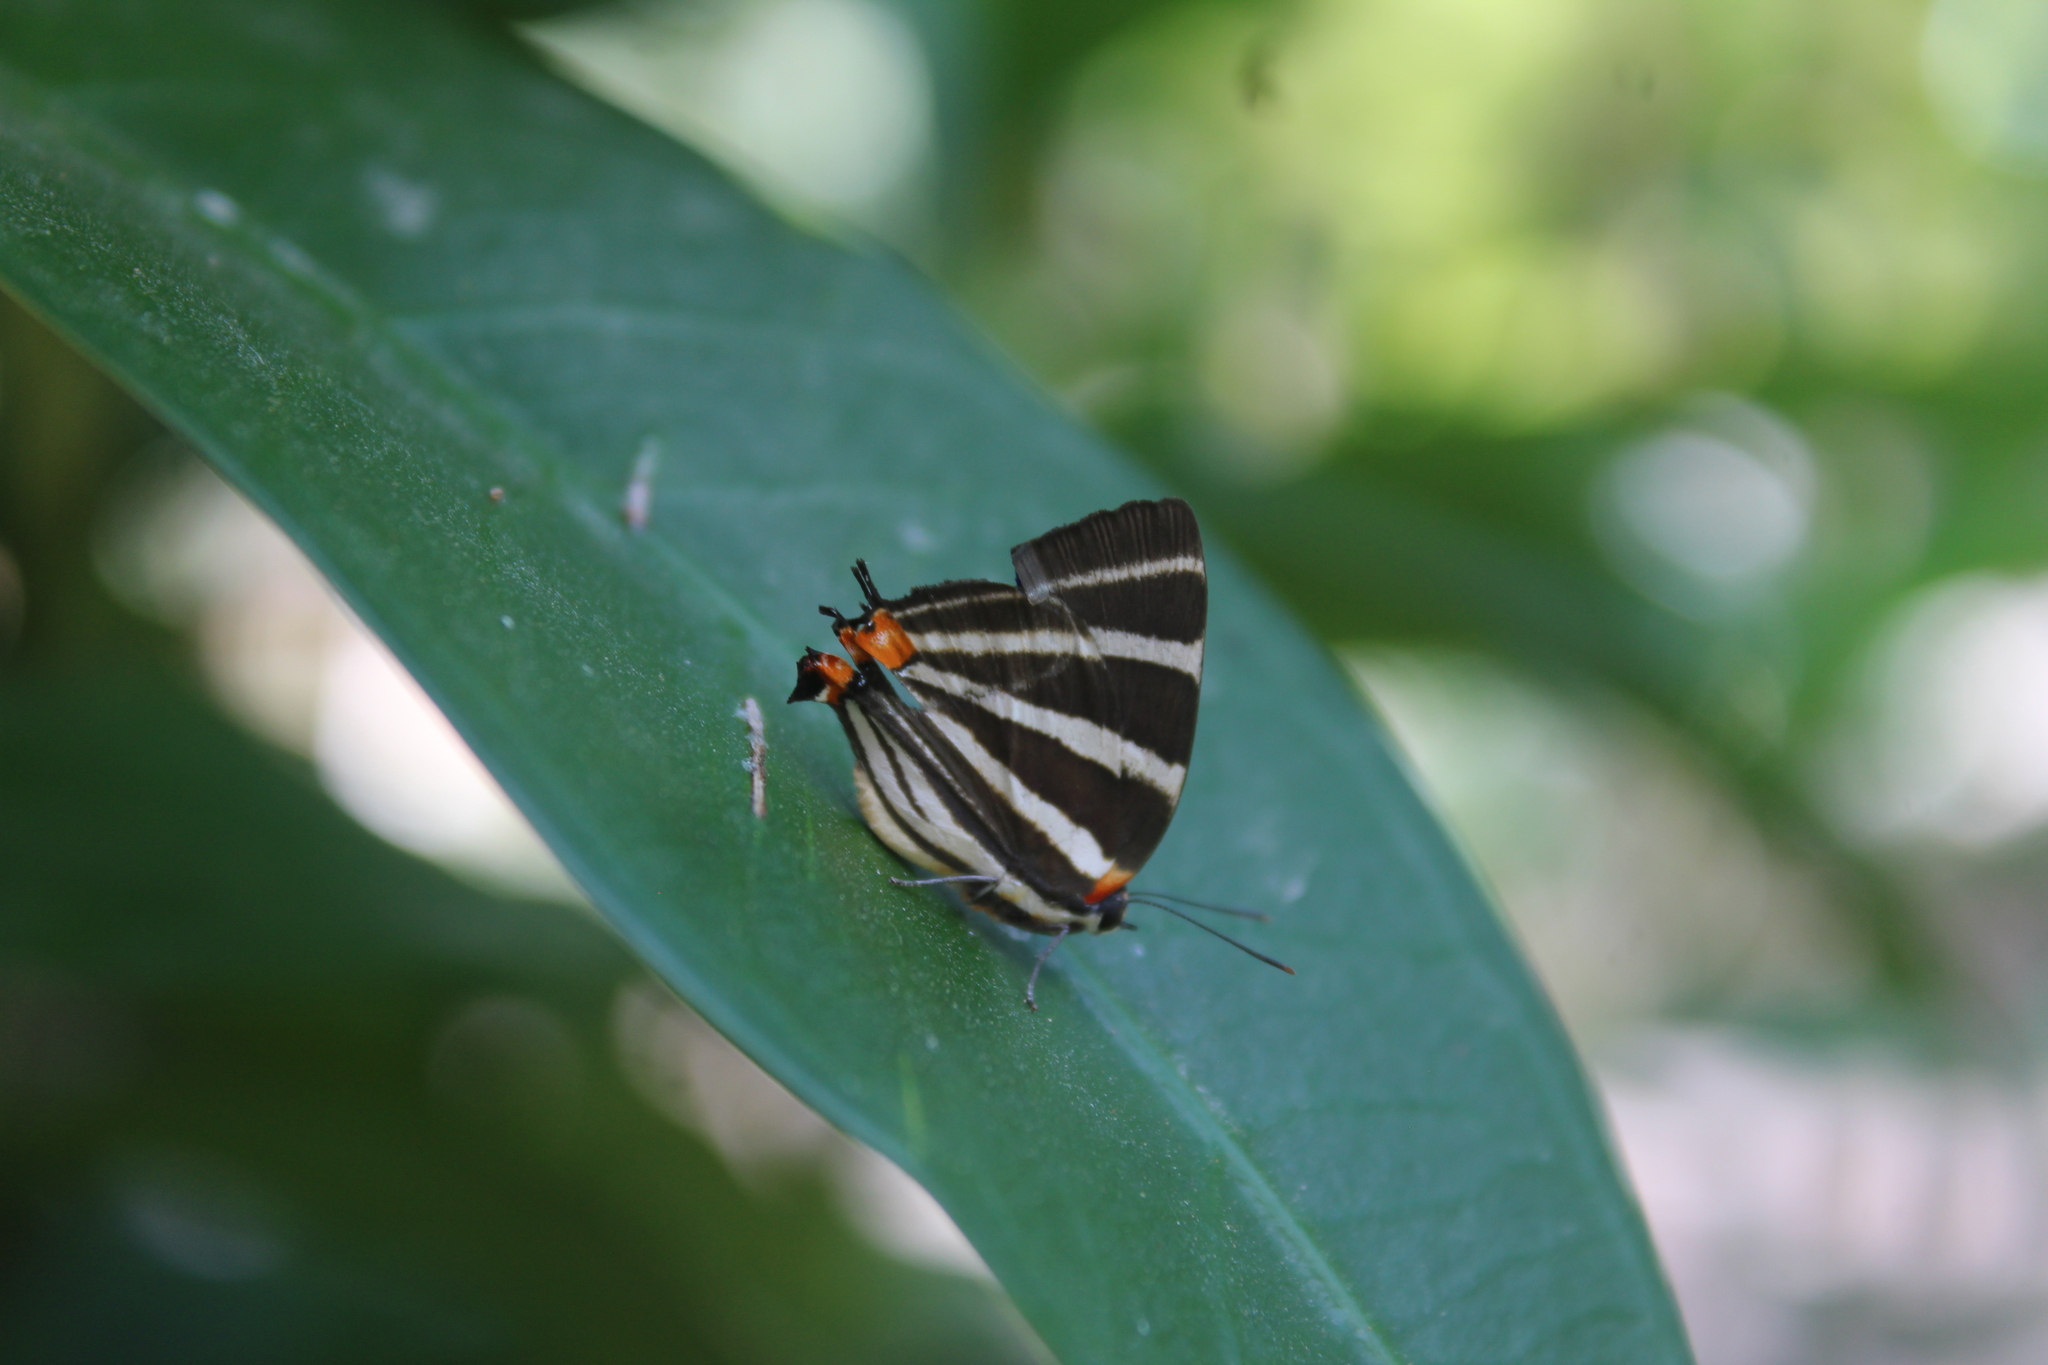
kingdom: Animalia
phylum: Arthropoda
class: Insecta
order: Lepidoptera
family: Lycaenidae
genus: Thecla
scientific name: Thecla bathildis
